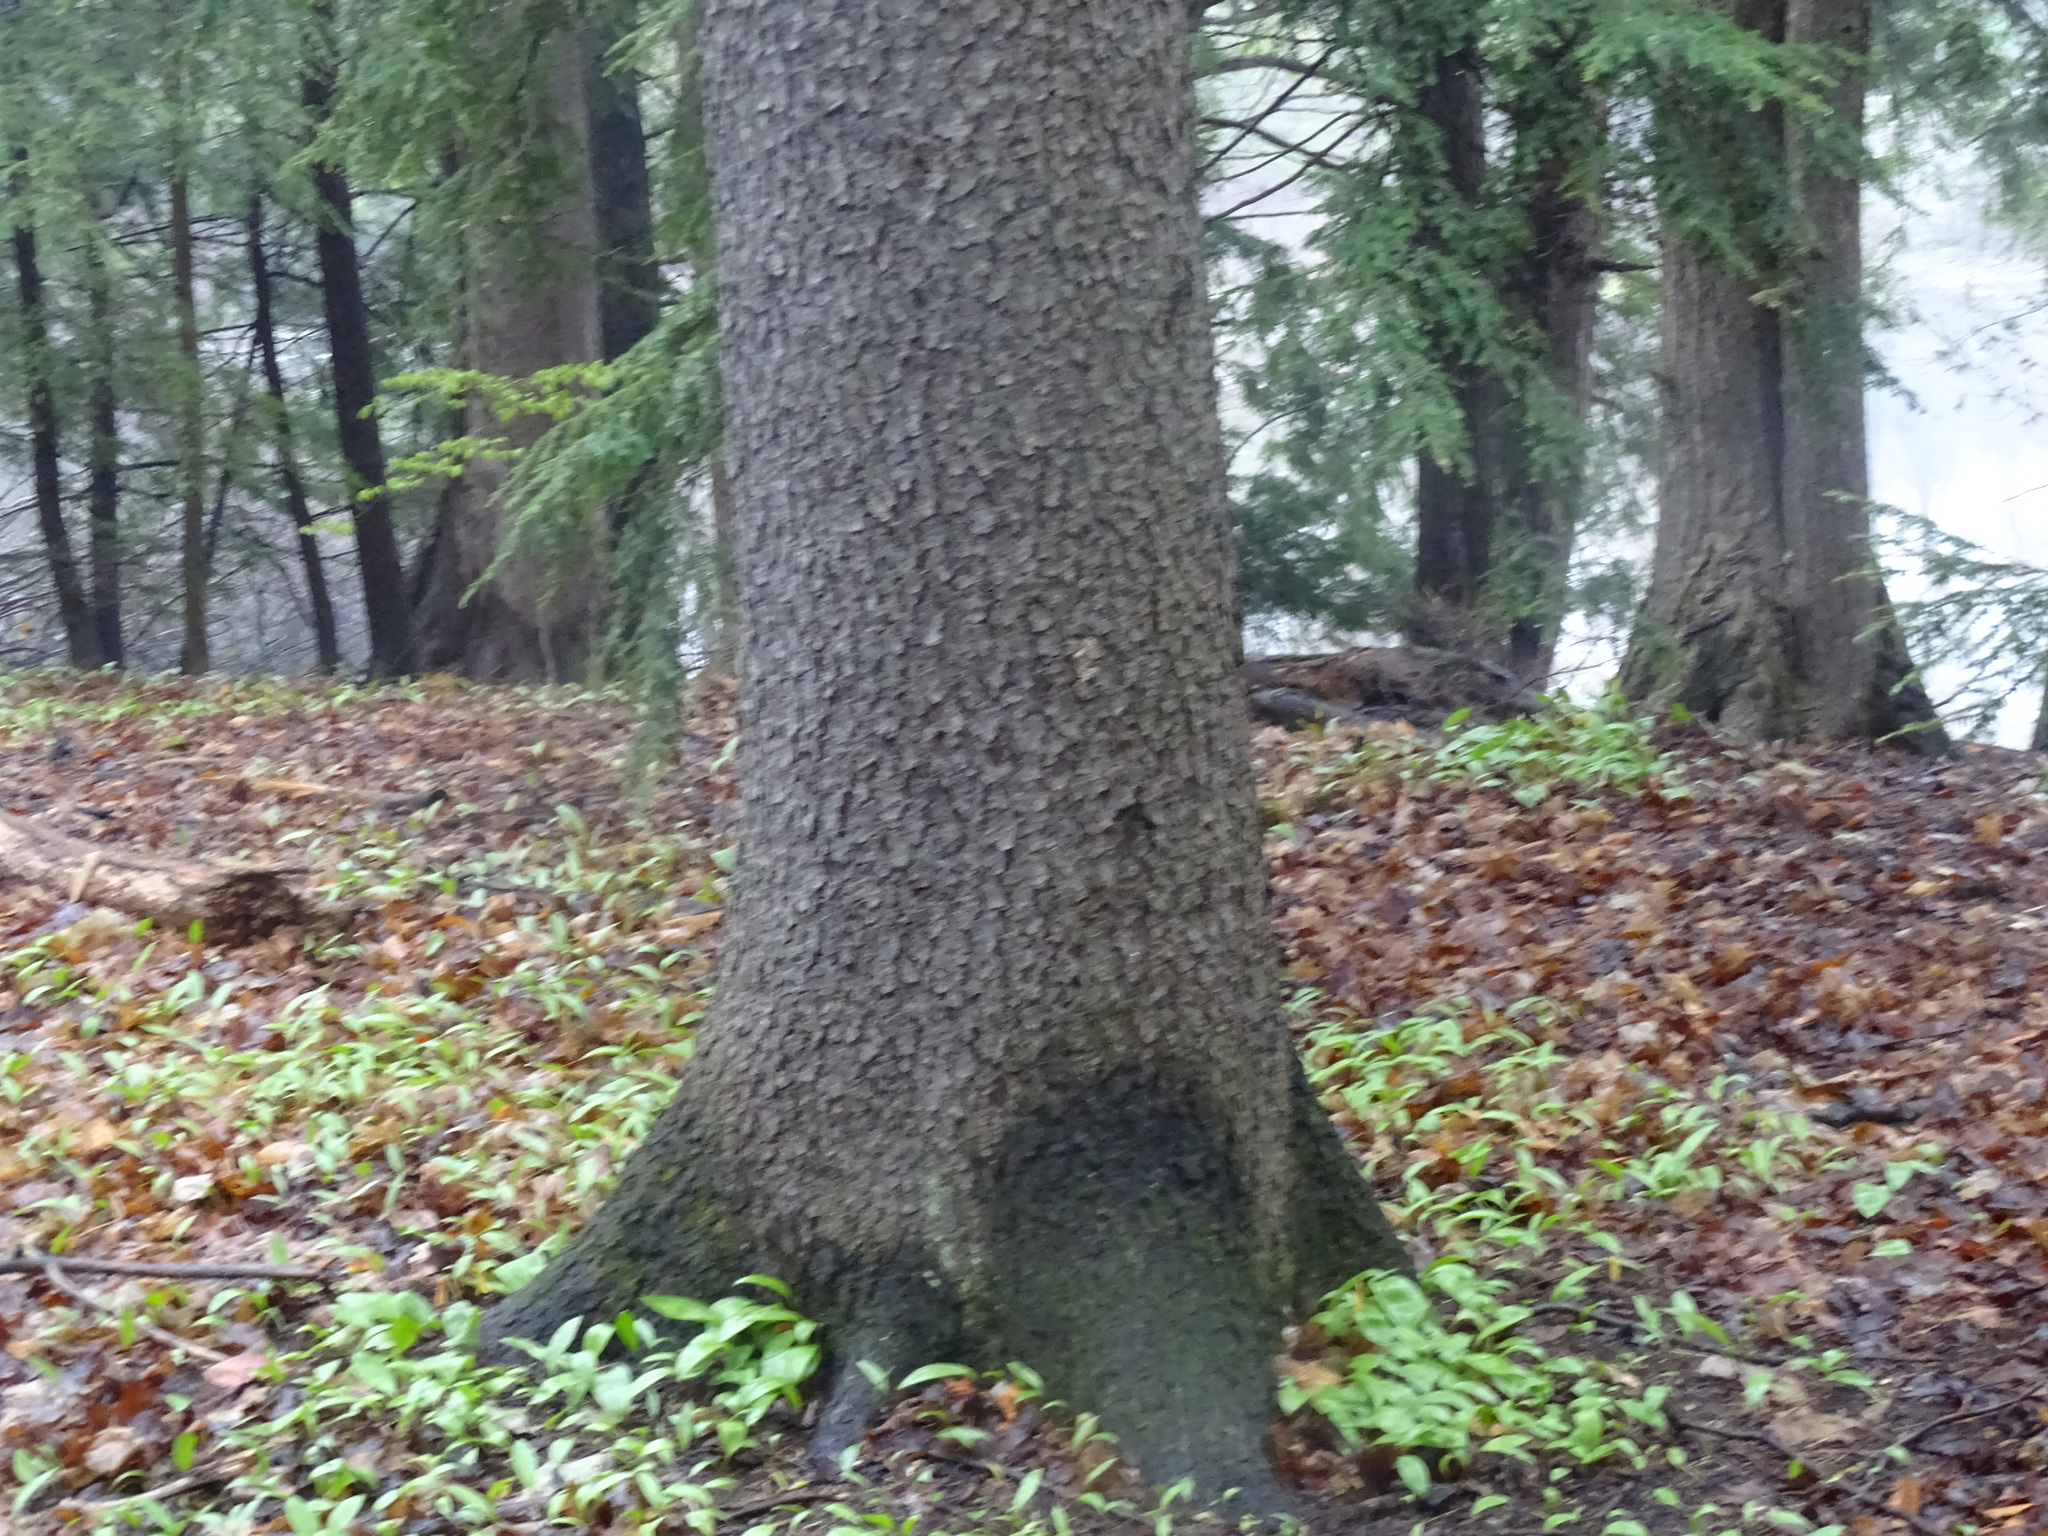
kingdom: Plantae
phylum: Tracheophyta
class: Magnoliopsida
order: Rosales
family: Rosaceae
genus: Prunus
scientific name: Prunus serotina
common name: Black cherry
